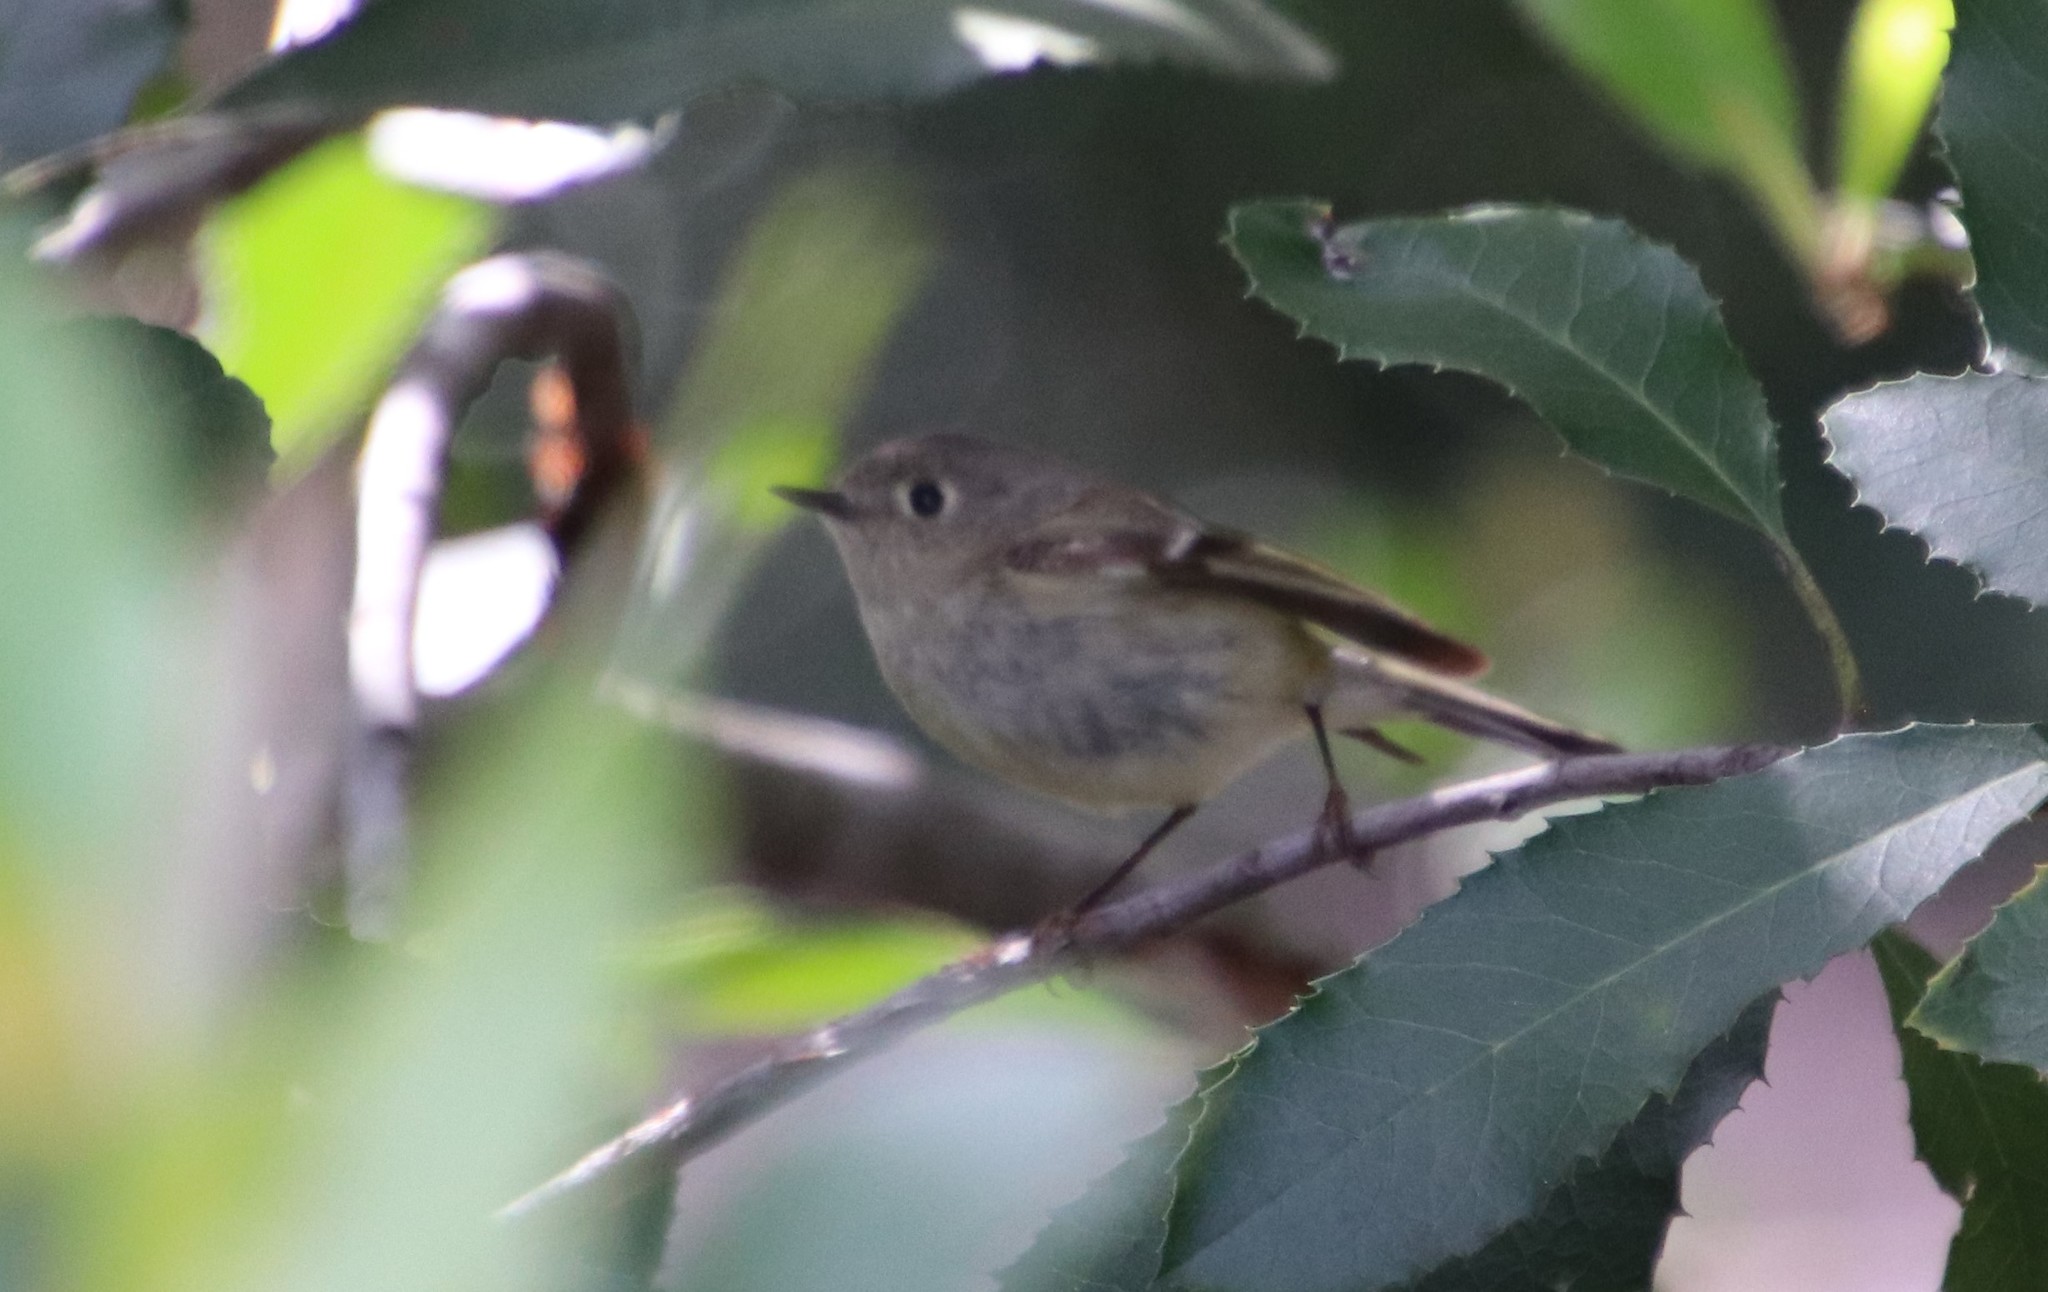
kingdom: Animalia
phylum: Chordata
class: Aves
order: Passeriformes
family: Regulidae
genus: Regulus
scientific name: Regulus calendula
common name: Ruby-crowned kinglet
